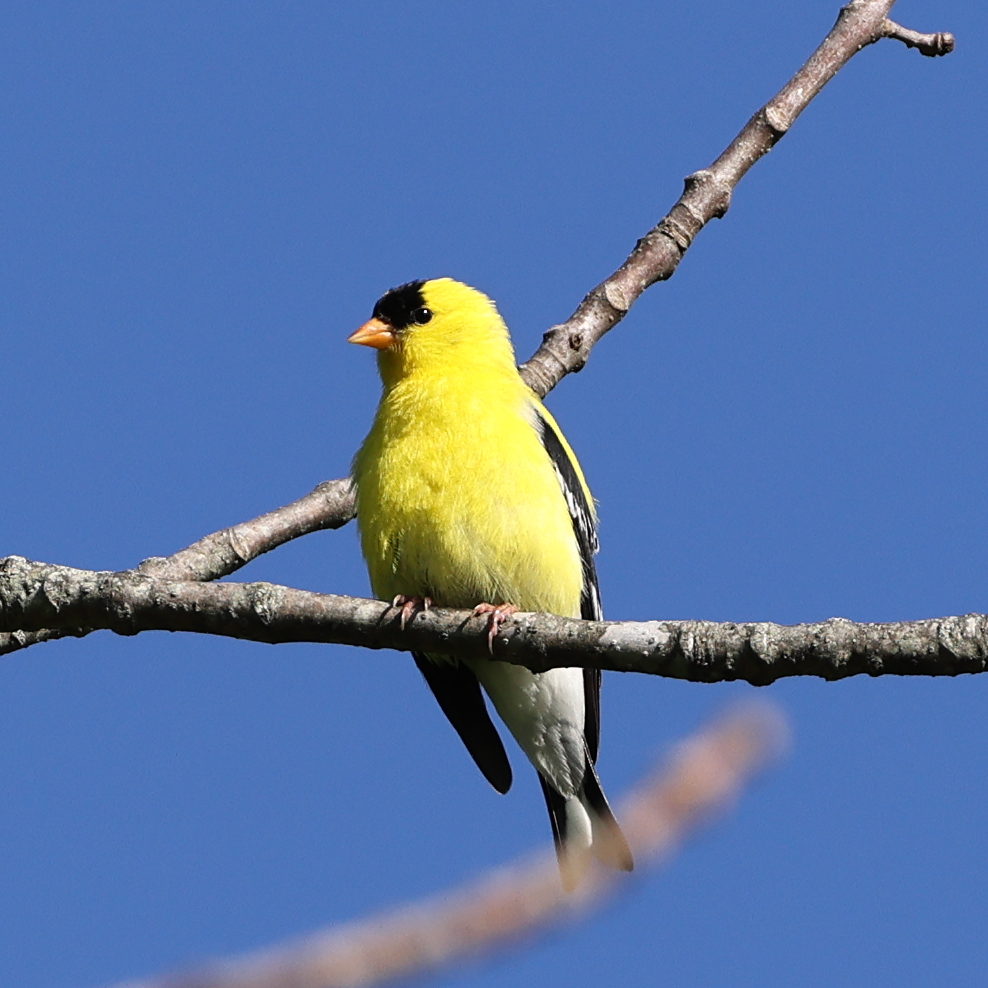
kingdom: Animalia
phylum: Chordata
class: Aves
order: Passeriformes
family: Fringillidae
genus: Spinus
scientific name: Spinus tristis
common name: American goldfinch
